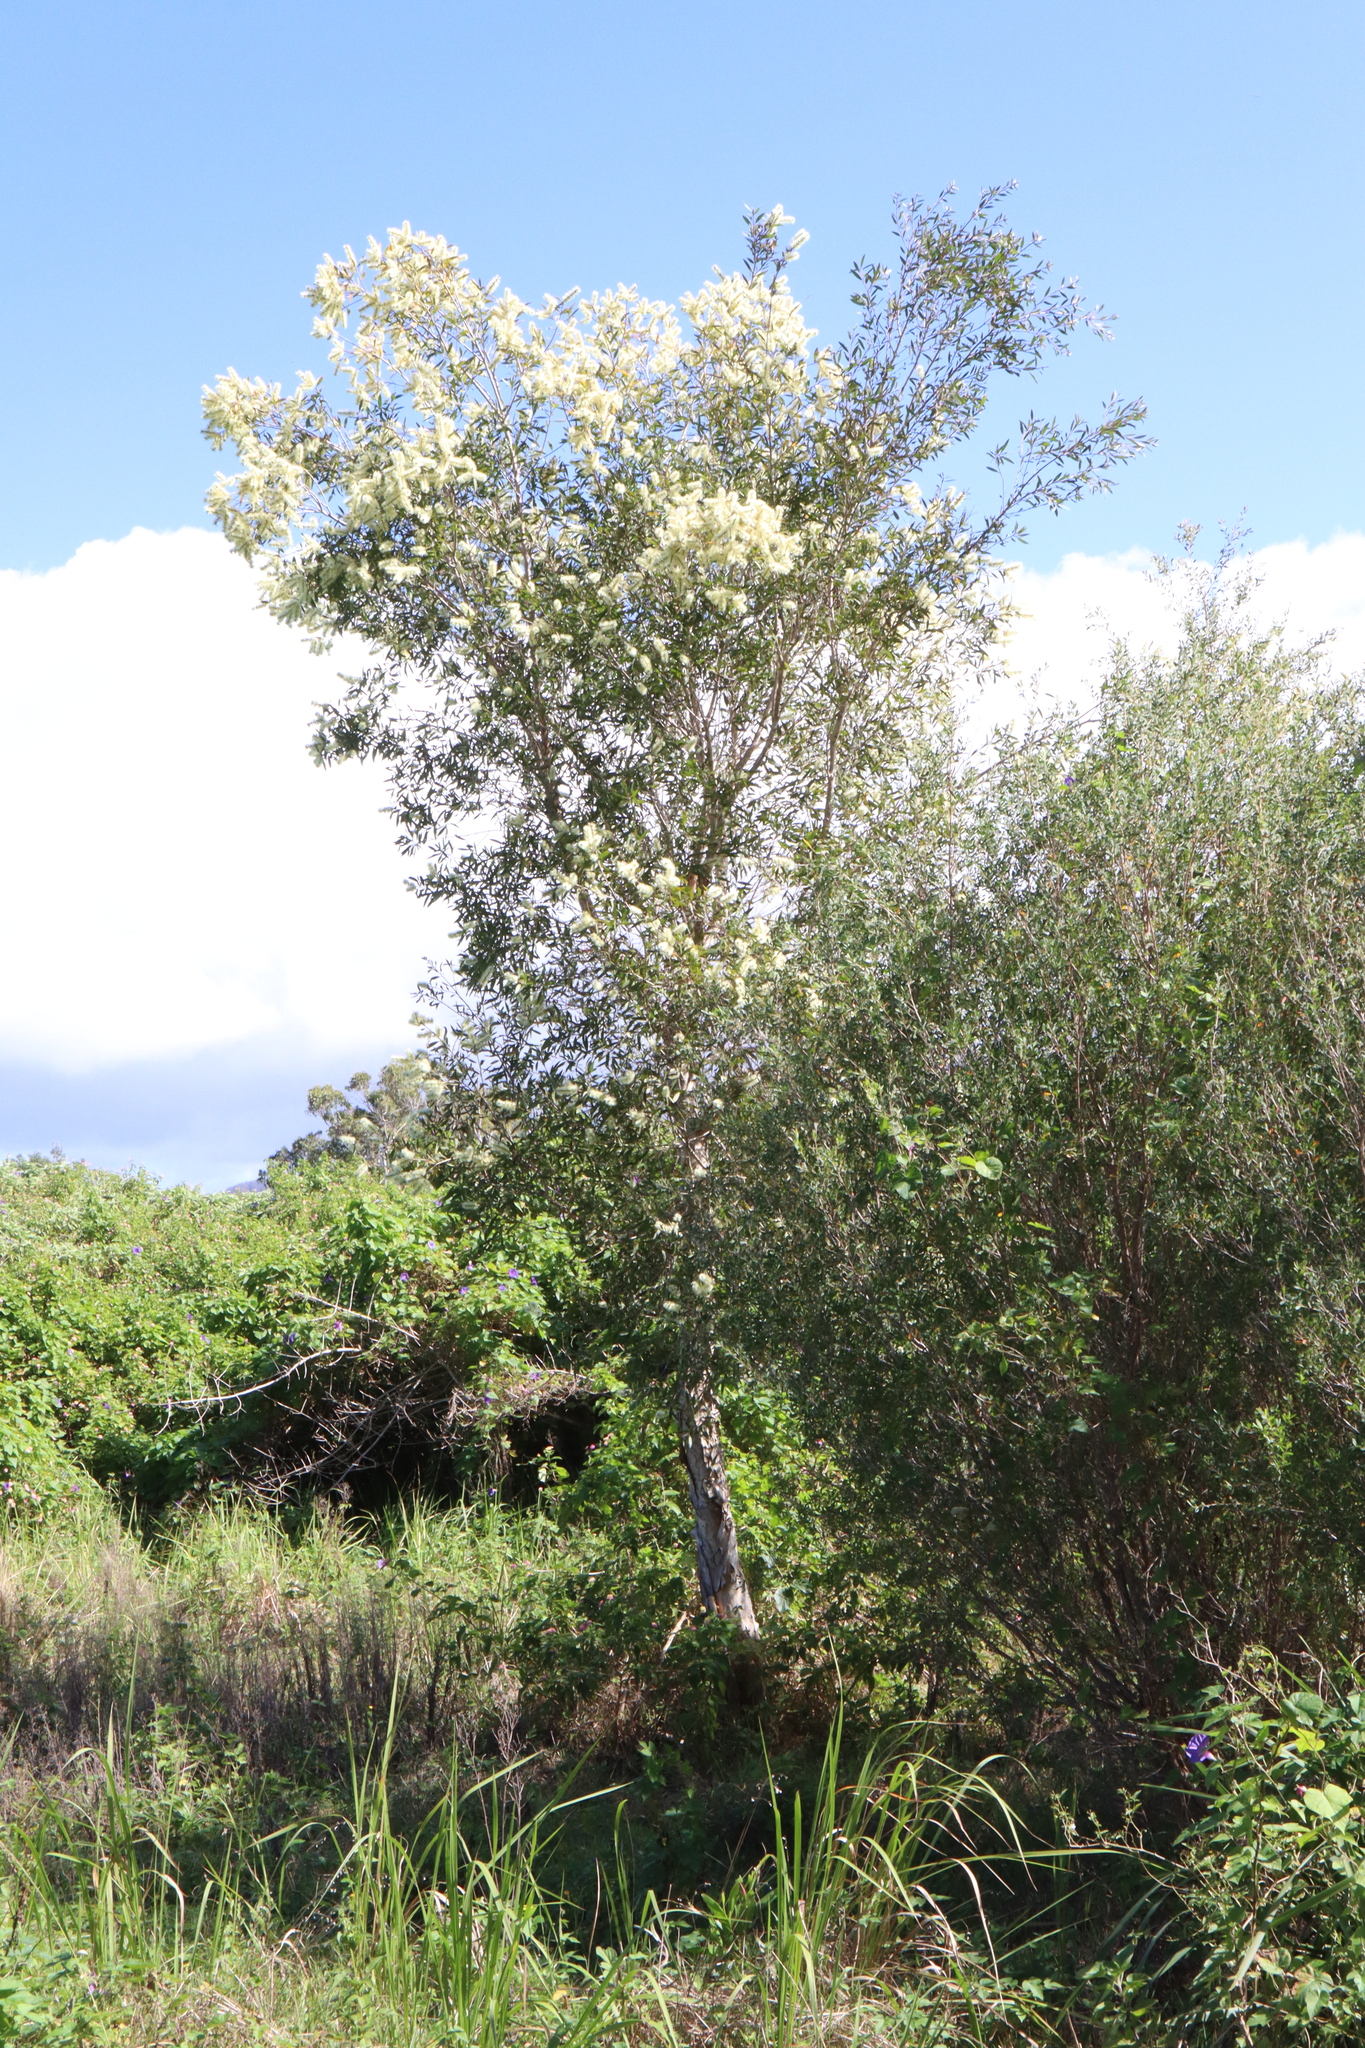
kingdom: Plantae
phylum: Tracheophyta
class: Magnoliopsida
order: Myrtales
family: Myrtaceae
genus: Melaleuca
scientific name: Melaleuca quinquenervia
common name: Punktree
